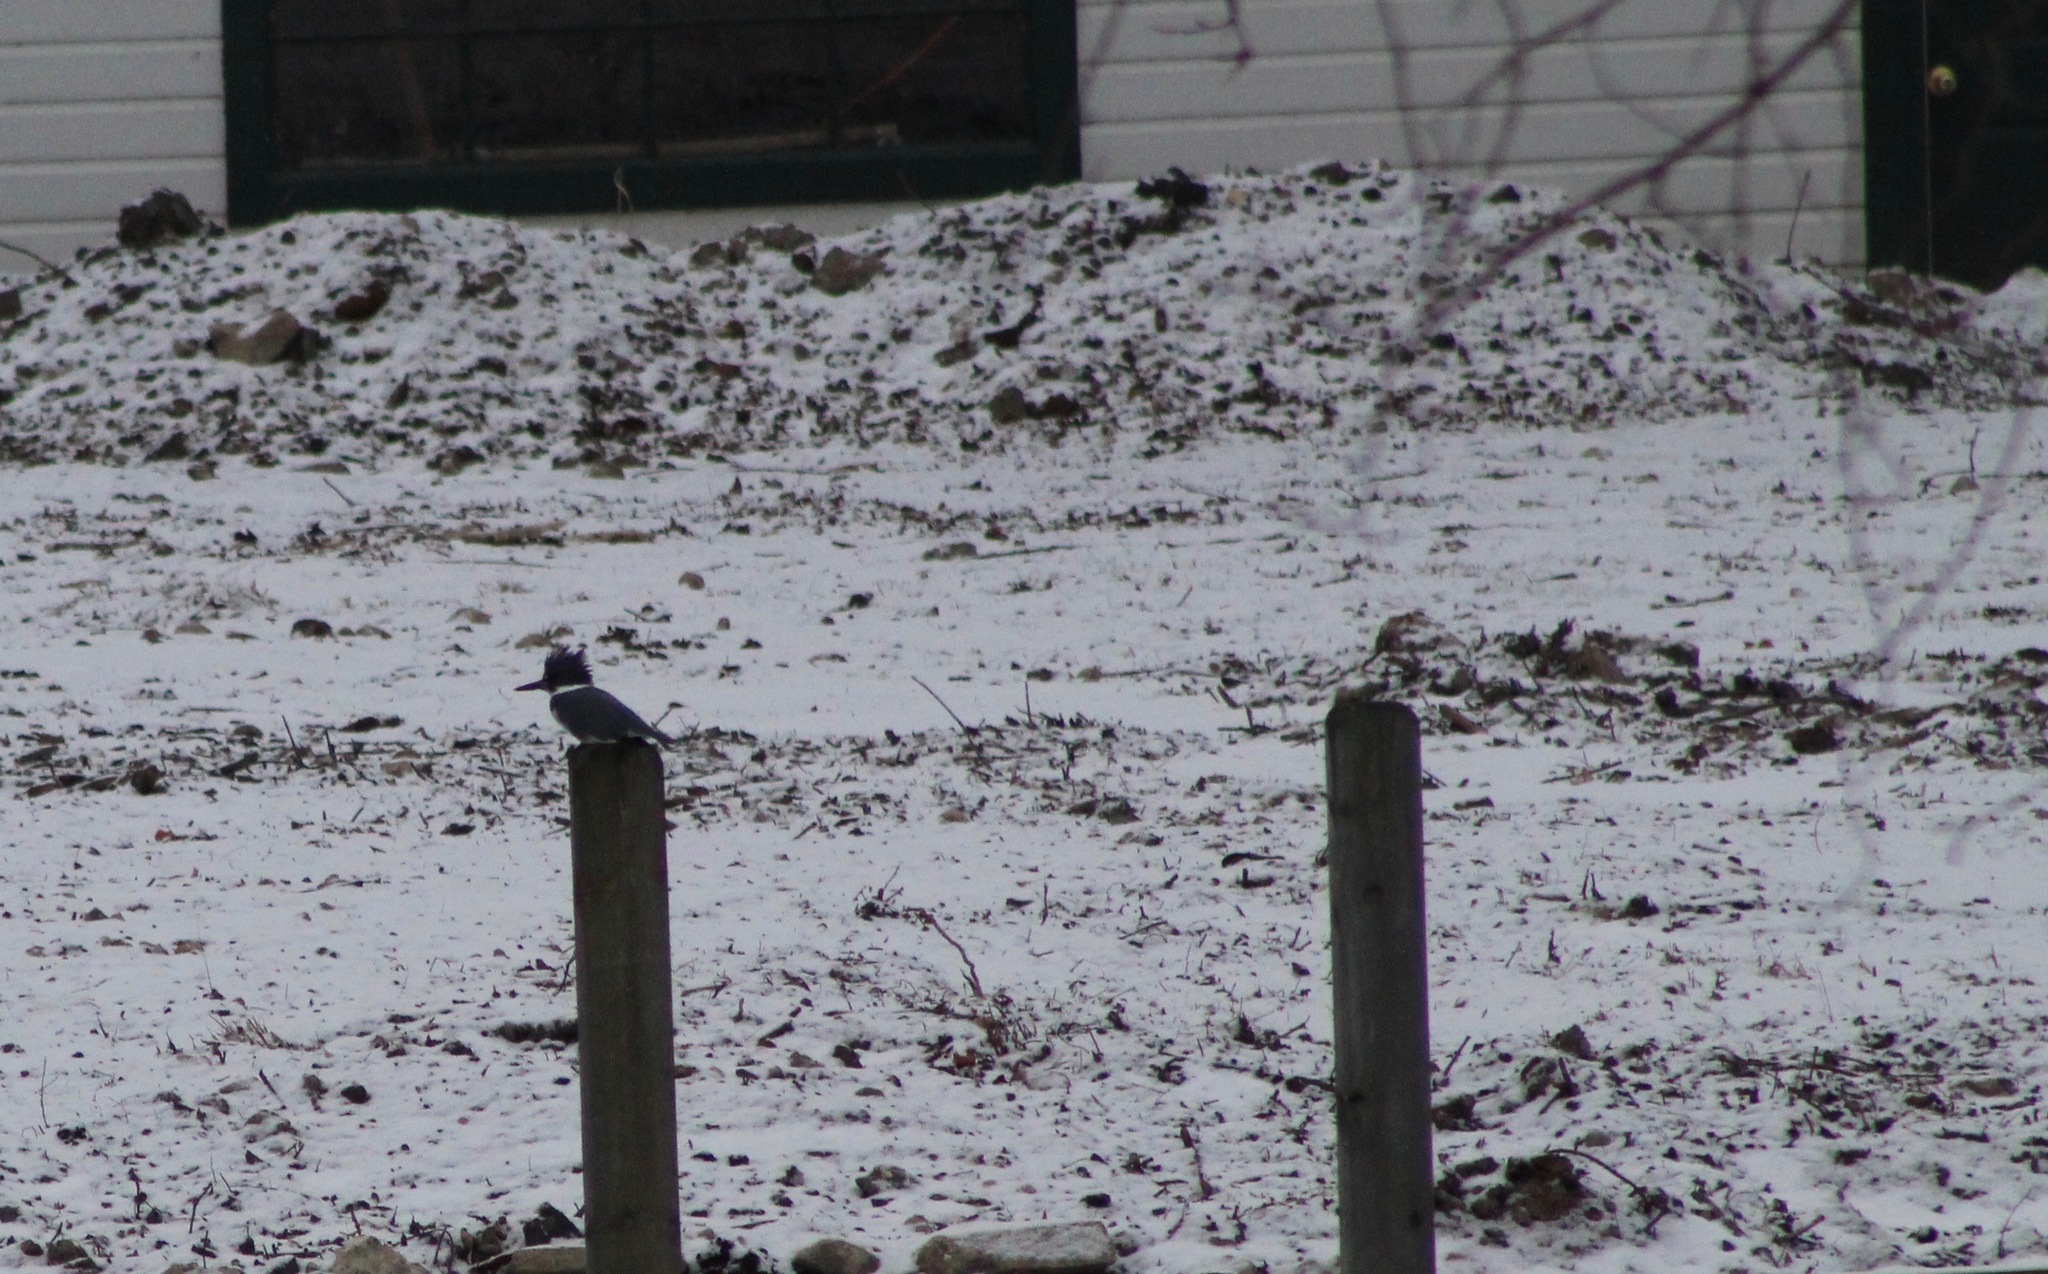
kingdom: Animalia
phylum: Chordata
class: Aves
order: Coraciiformes
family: Alcedinidae
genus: Megaceryle
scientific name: Megaceryle alcyon
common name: Belted kingfisher
